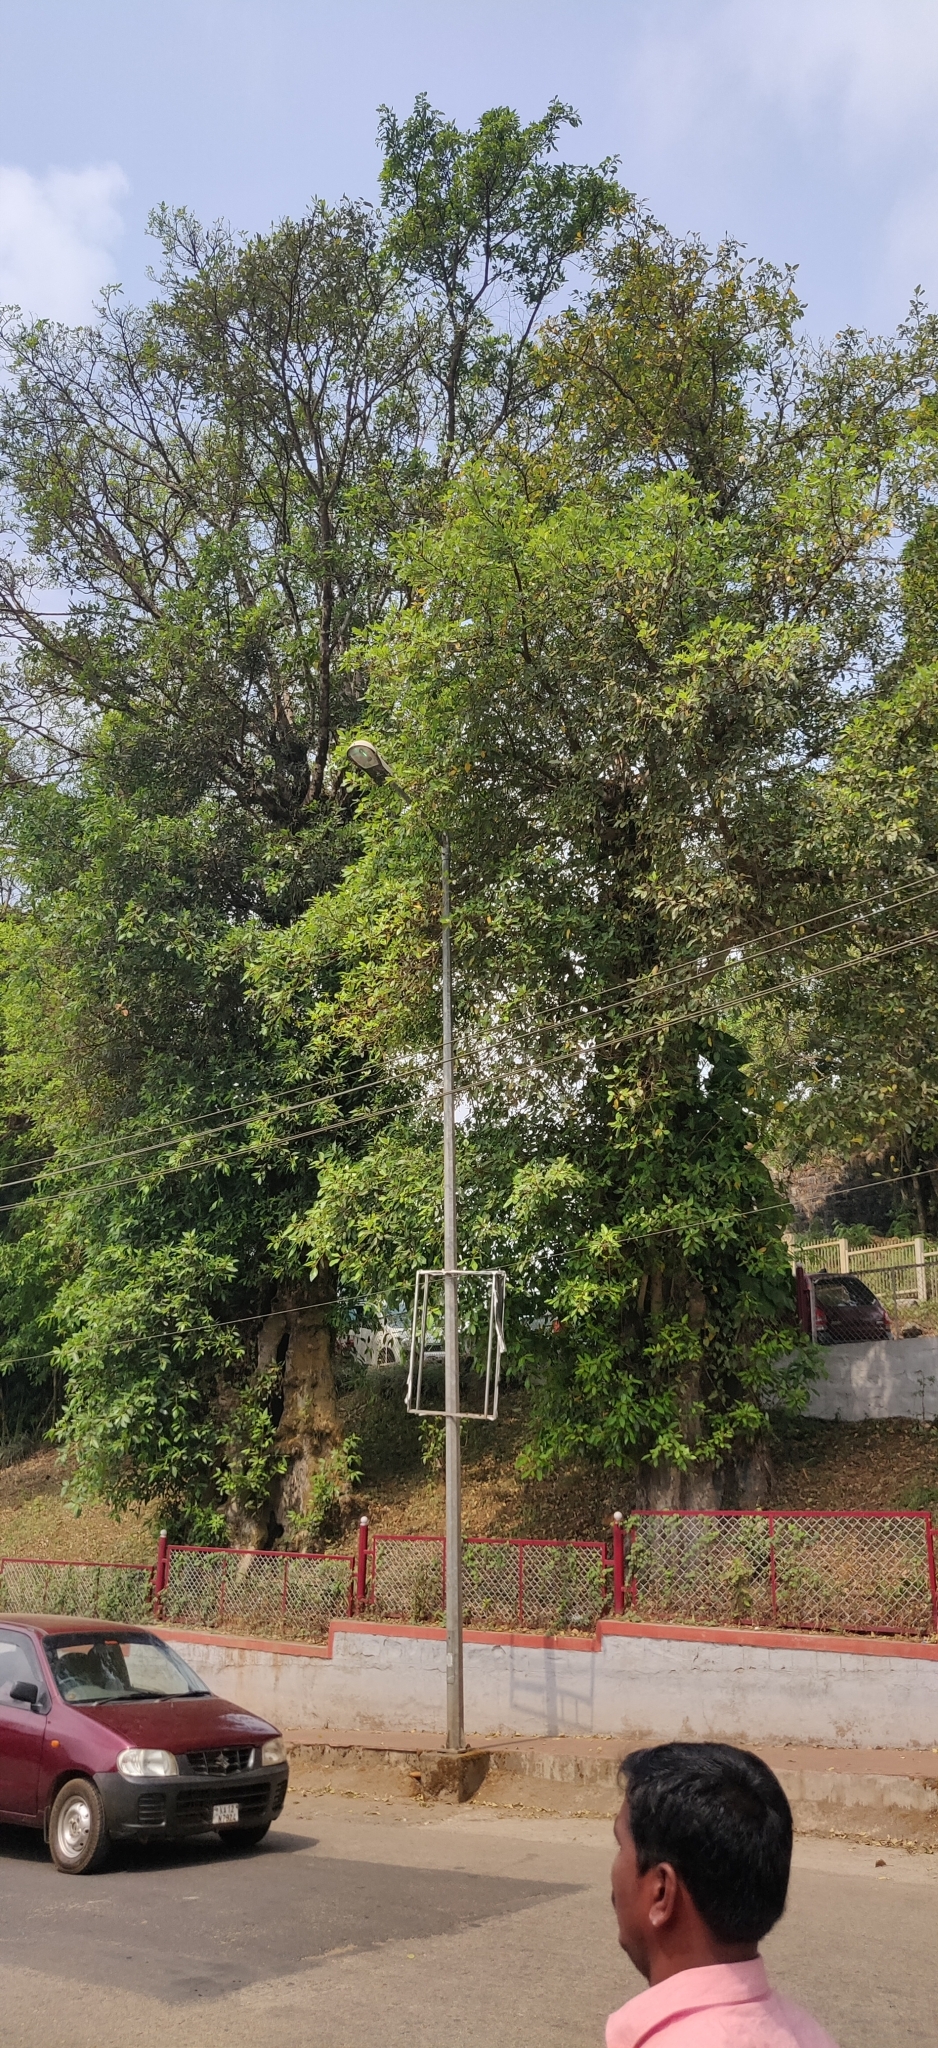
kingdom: Plantae
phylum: Tracheophyta
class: Magnoliopsida
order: Rosales
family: Moraceae
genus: Ficus
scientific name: Ficus racemosa
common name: Cluster fig
